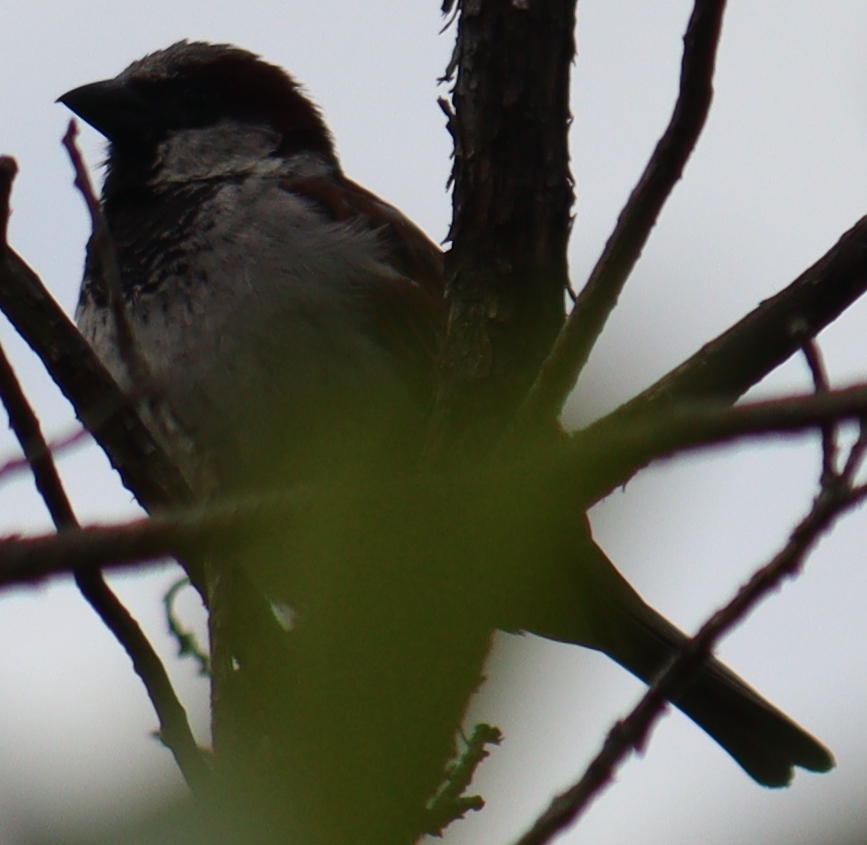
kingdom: Animalia
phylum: Chordata
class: Aves
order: Passeriformes
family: Passeridae
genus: Passer
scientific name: Passer domesticus
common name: House sparrow
